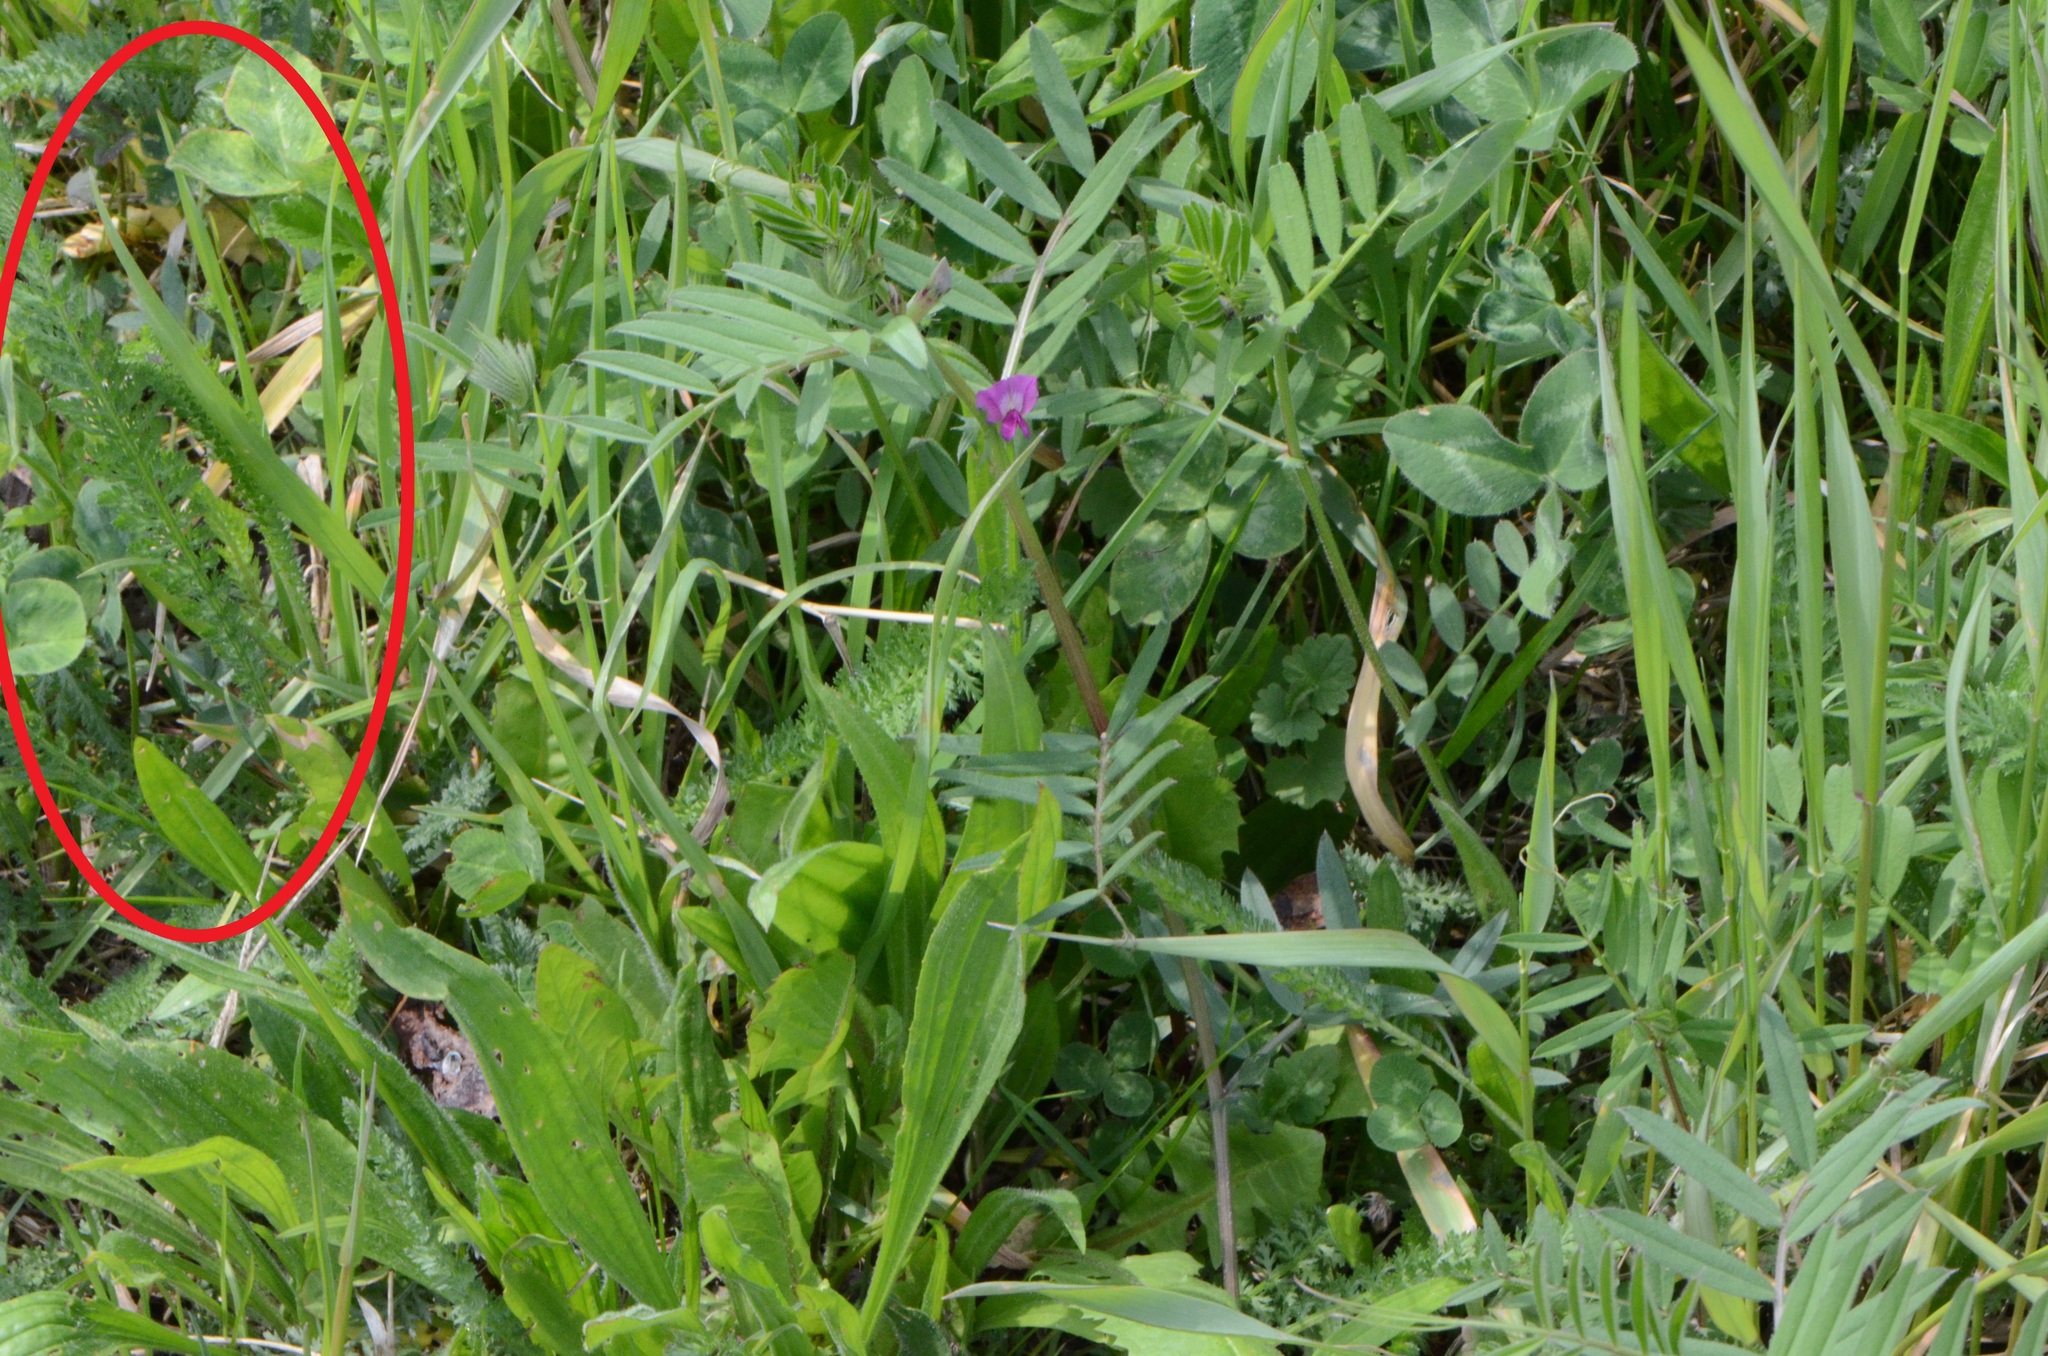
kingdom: Plantae
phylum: Tracheophyta
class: Magnoliopsida
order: Asterales
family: Asteraceae
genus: Achillea
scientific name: Achillea
